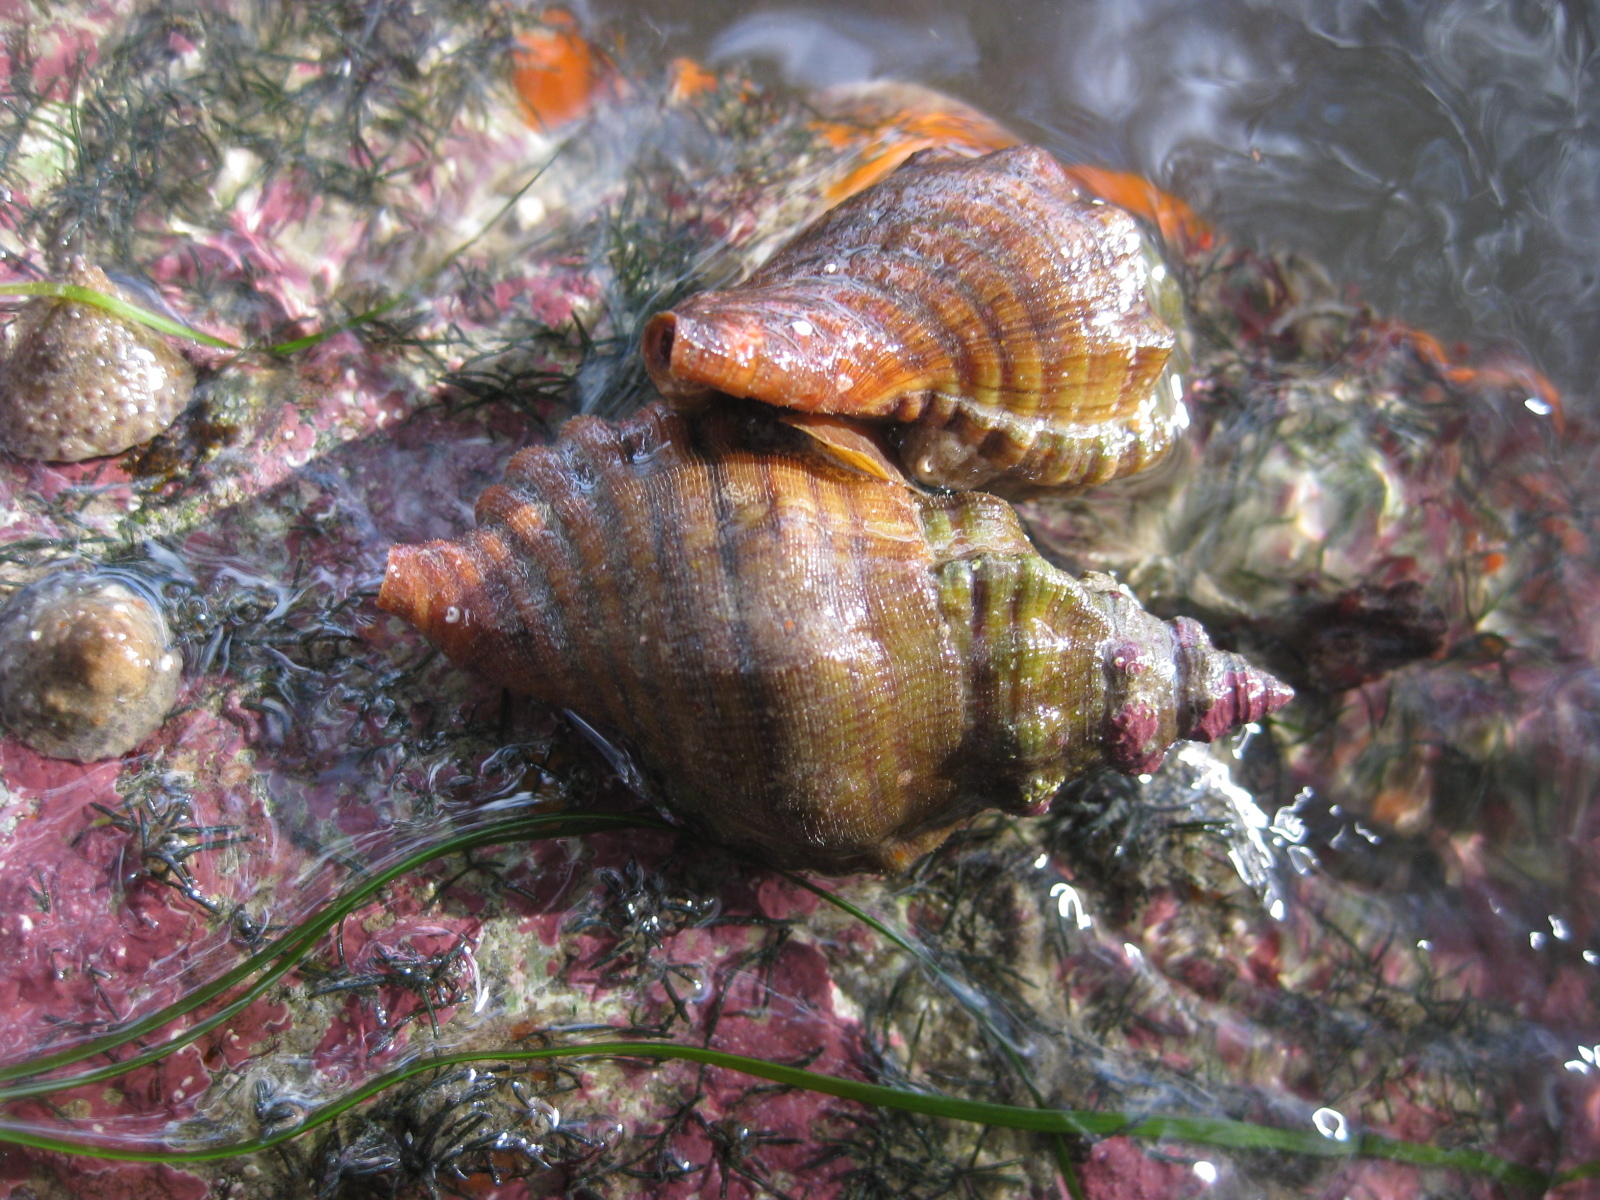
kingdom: Animalia
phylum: Mollusca
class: Gastropoda
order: Littorinimorpha
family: Cymatiidae
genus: Cabestana
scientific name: Cabestana spengleri
